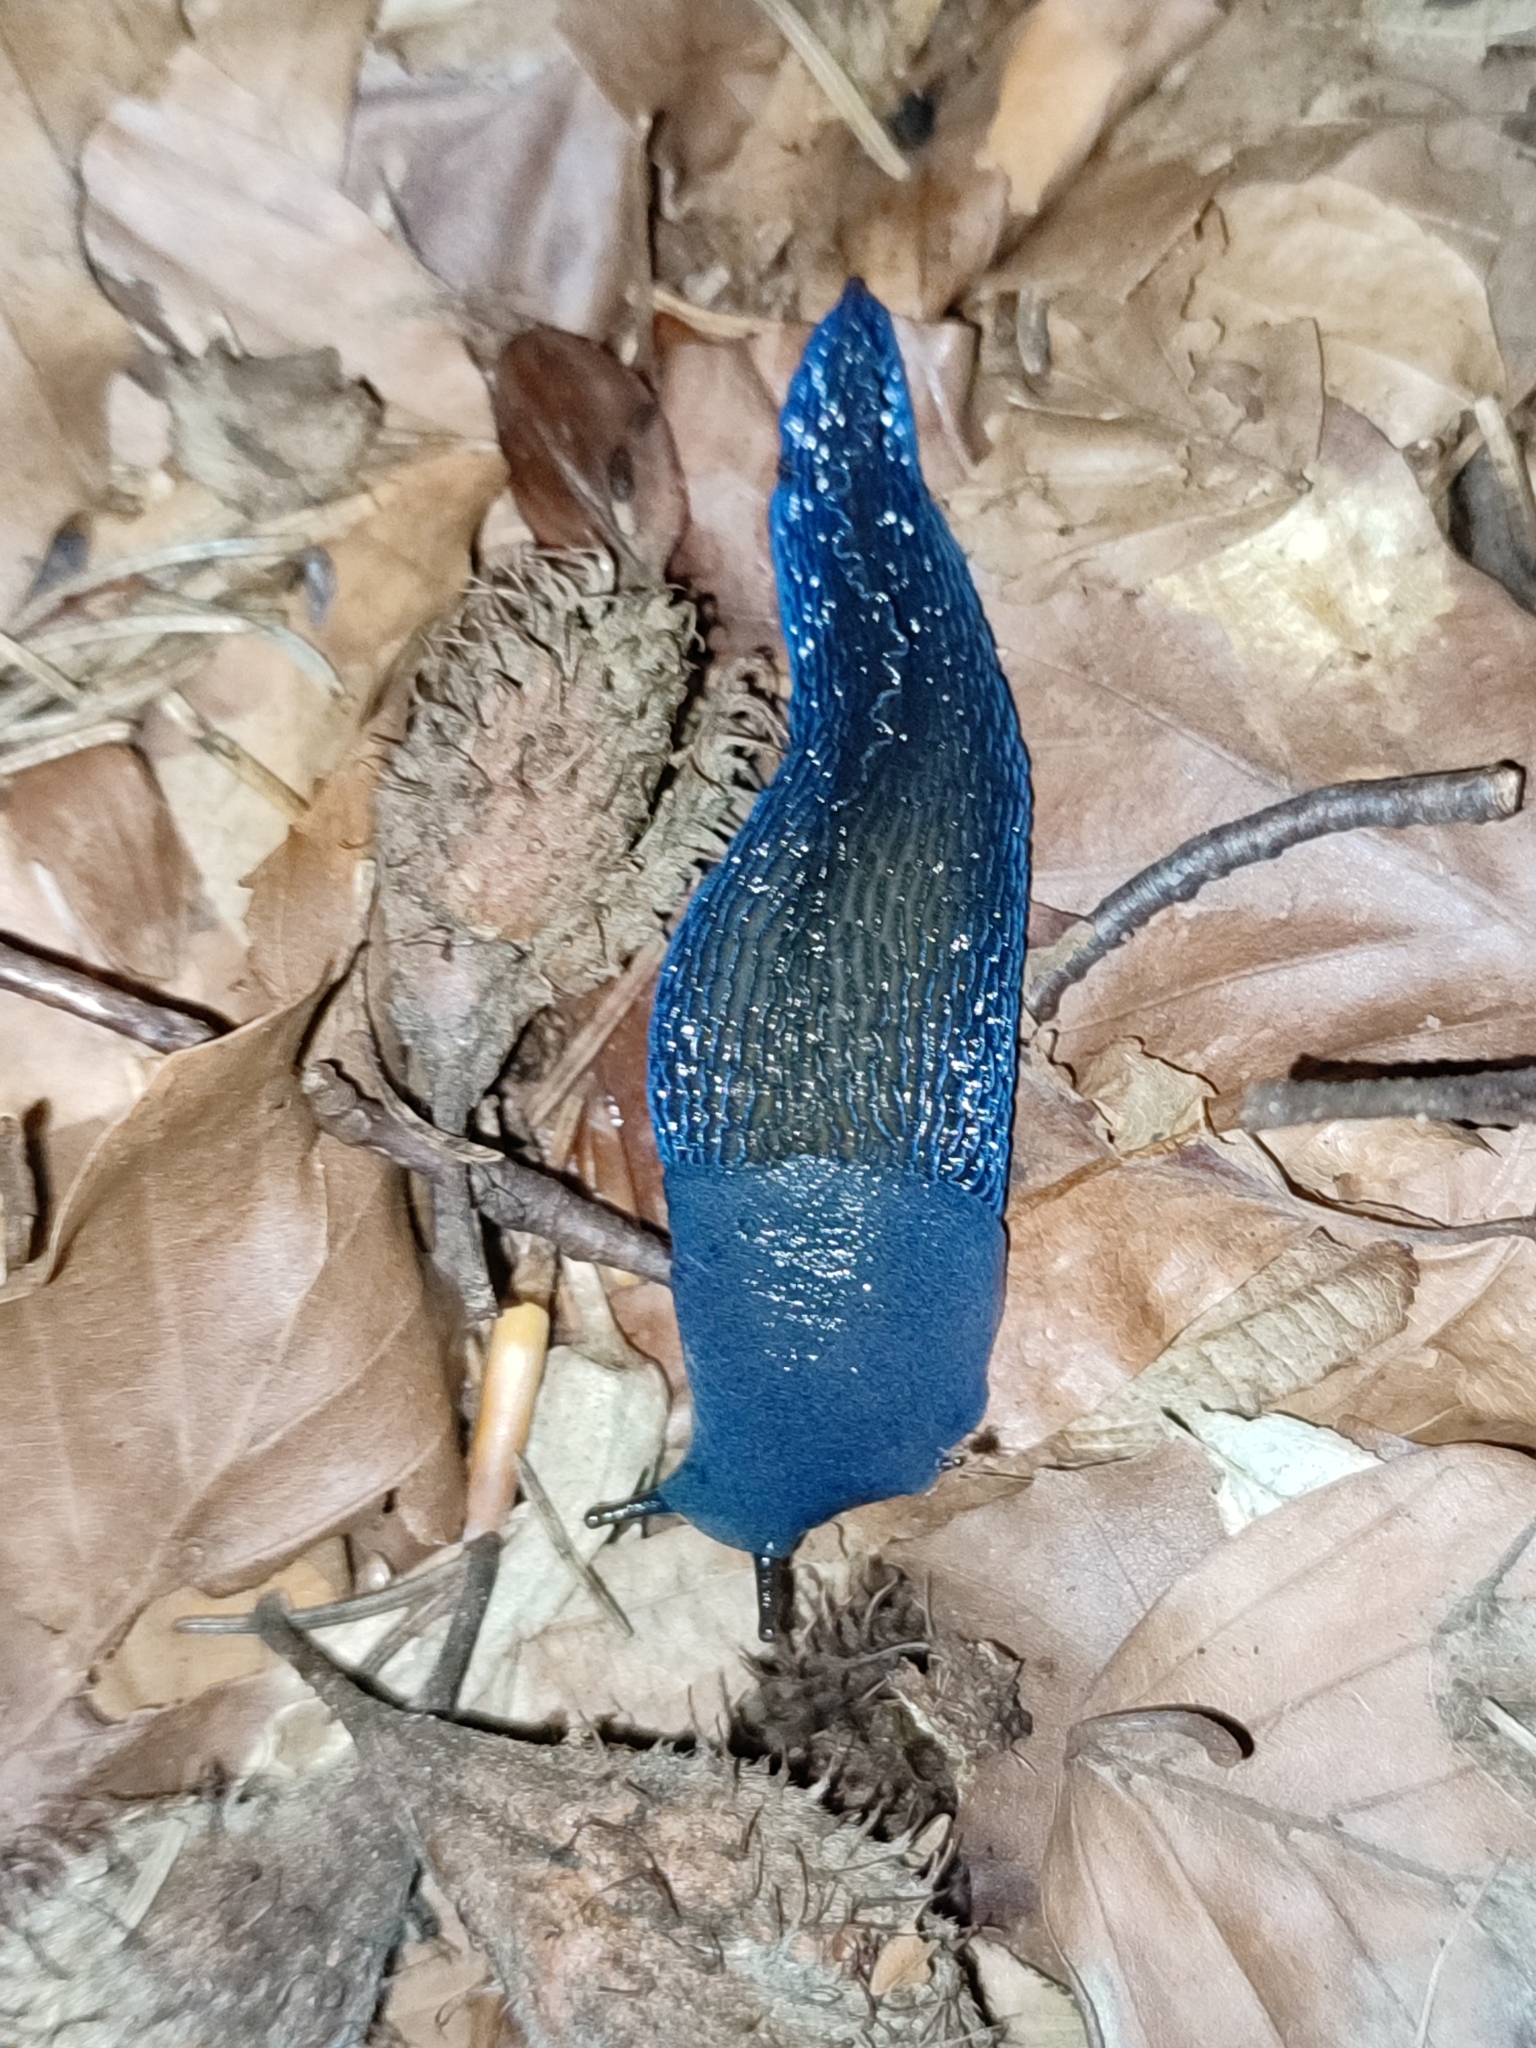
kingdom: Animalia
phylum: Mollusca
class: Gastropoda
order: Stylommatophora
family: Limacidae
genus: Bielzia
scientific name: Bielzia coerulans
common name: Carpathian blue slug
